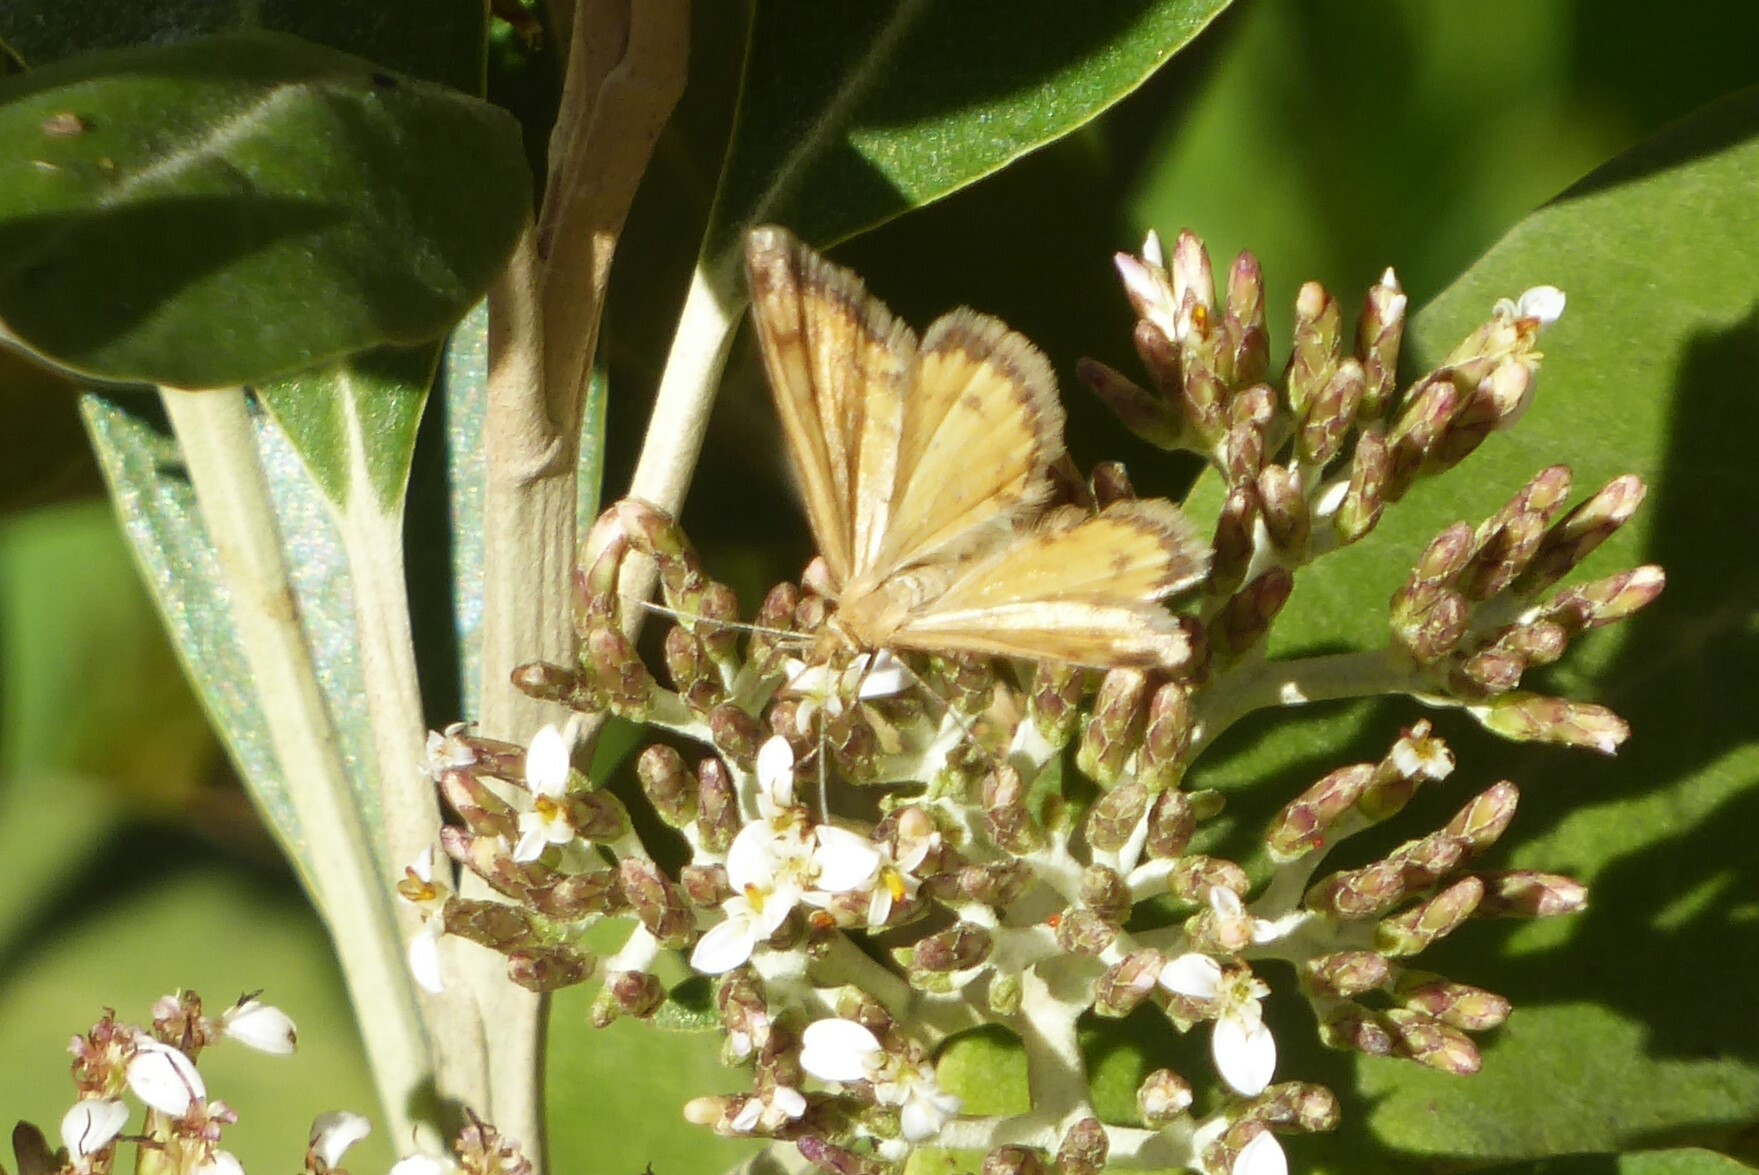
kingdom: Animalia
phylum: Arthropoda
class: Insecta
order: Lepidoptera
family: Geometridae
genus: Asaphodes
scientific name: Asaphodes abrogata
